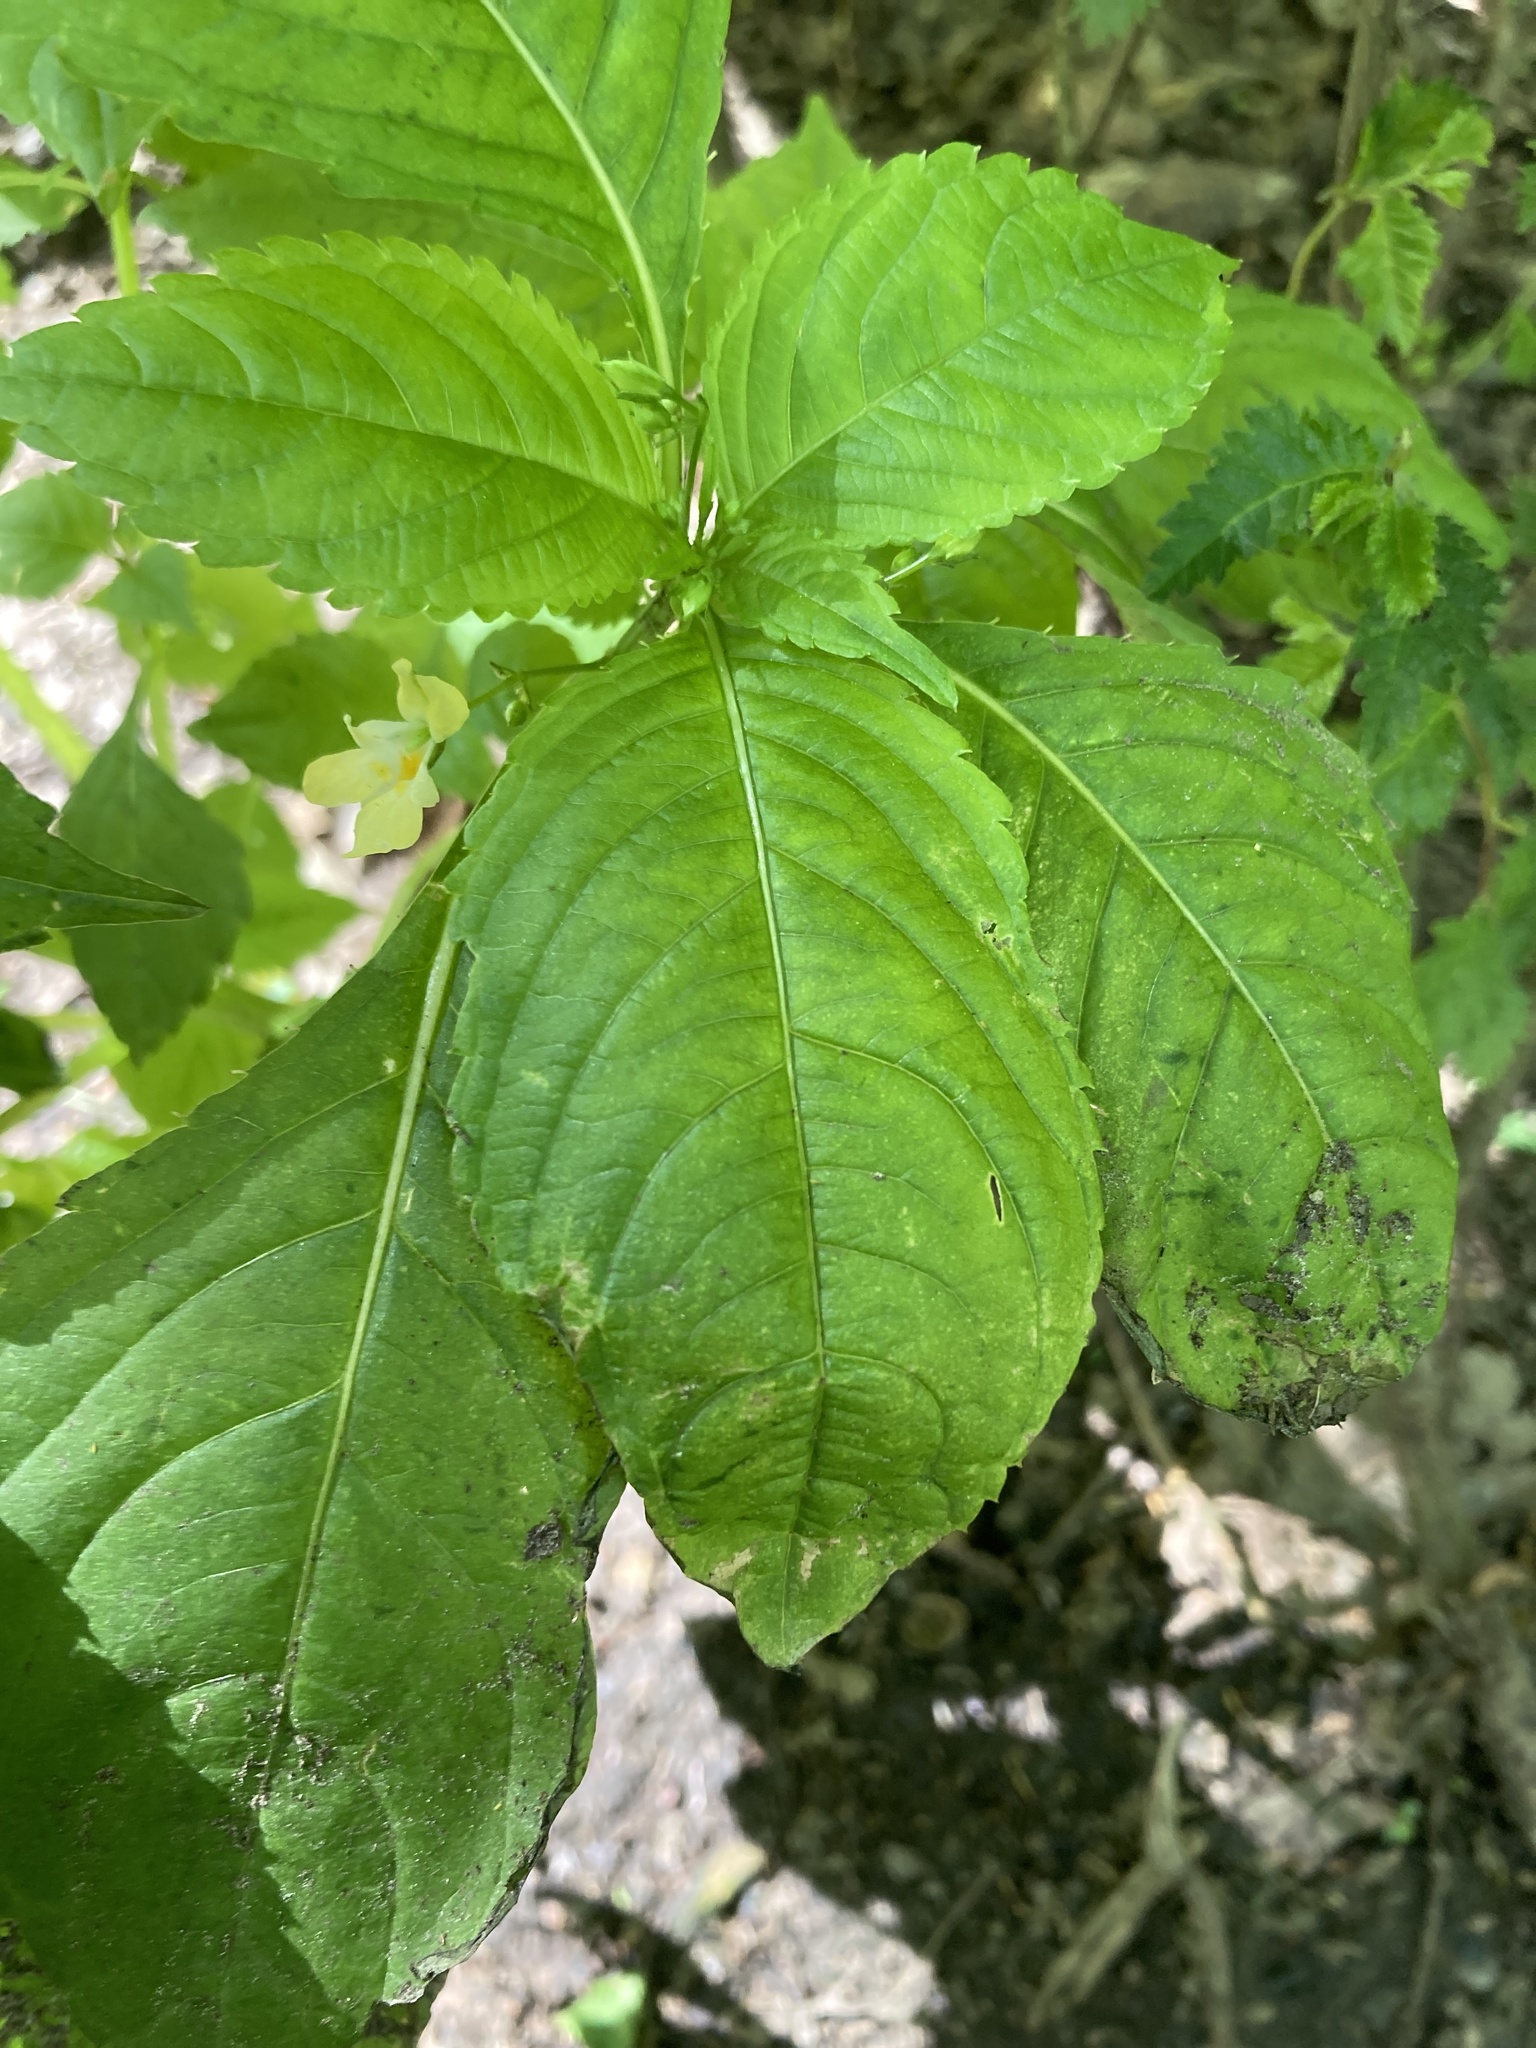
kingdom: Plantae
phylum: Tracheophyta
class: Magnoliopsida
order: Ericales
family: Balsaminaceae
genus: Impatiens
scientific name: Impatiens parviflora
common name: Small balsam
